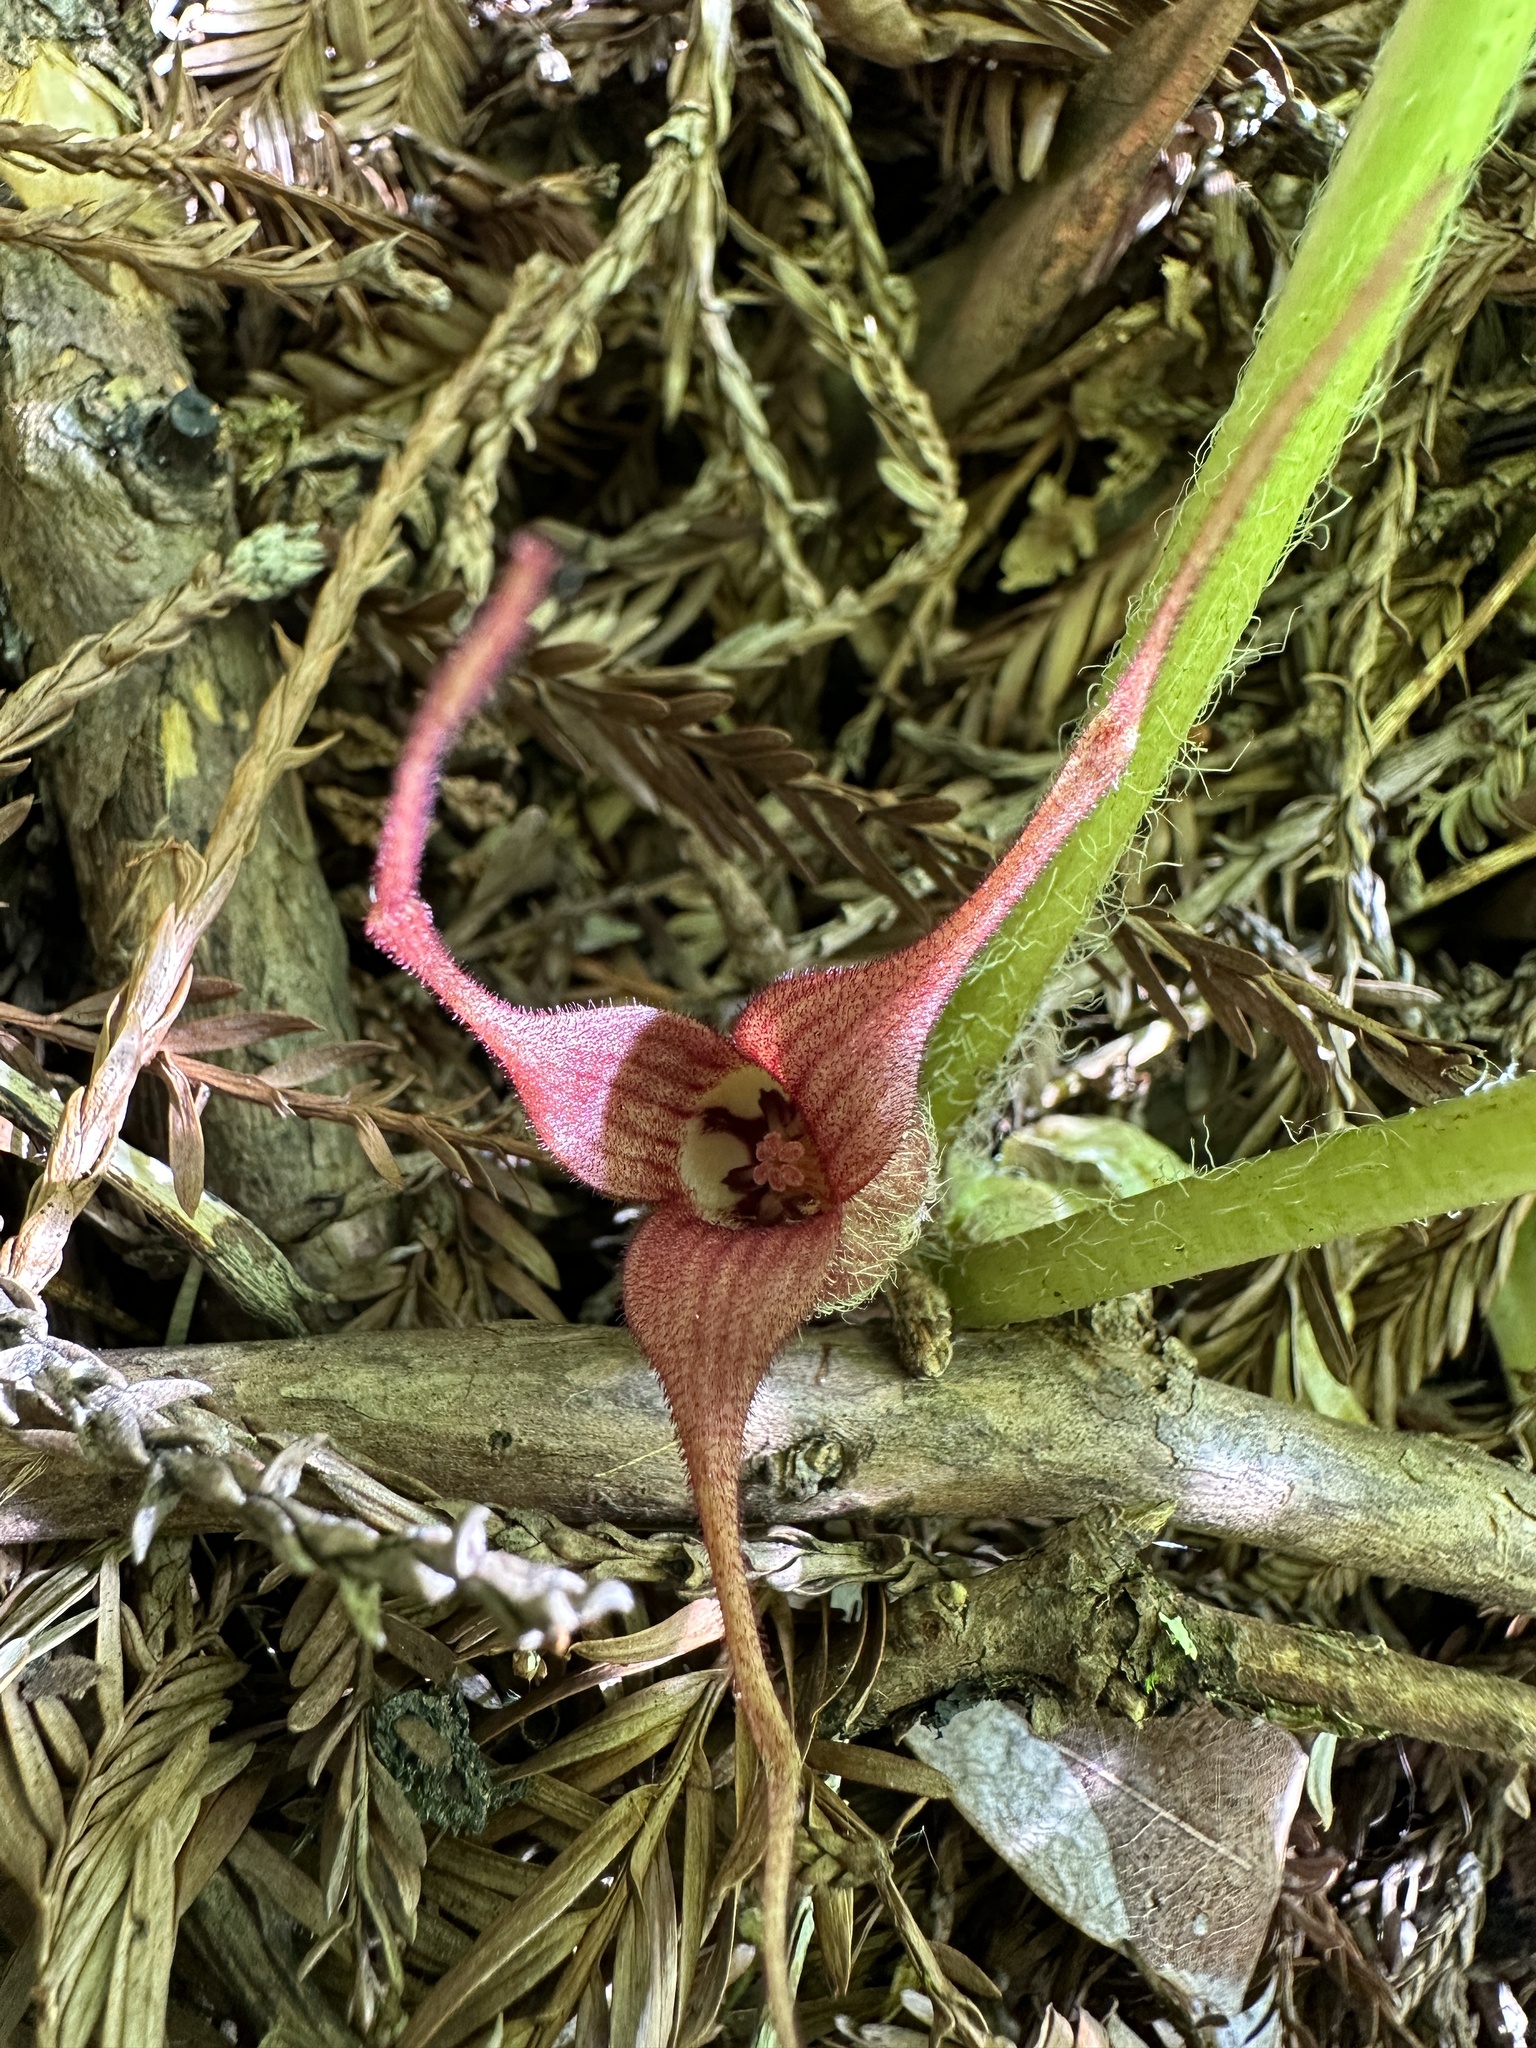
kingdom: Plantae
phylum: Tracheophyta
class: Magnoliopsida
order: Piperales
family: Aristolochiaceae
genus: Asarum
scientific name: Asarum caudatum
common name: Wild ginger
